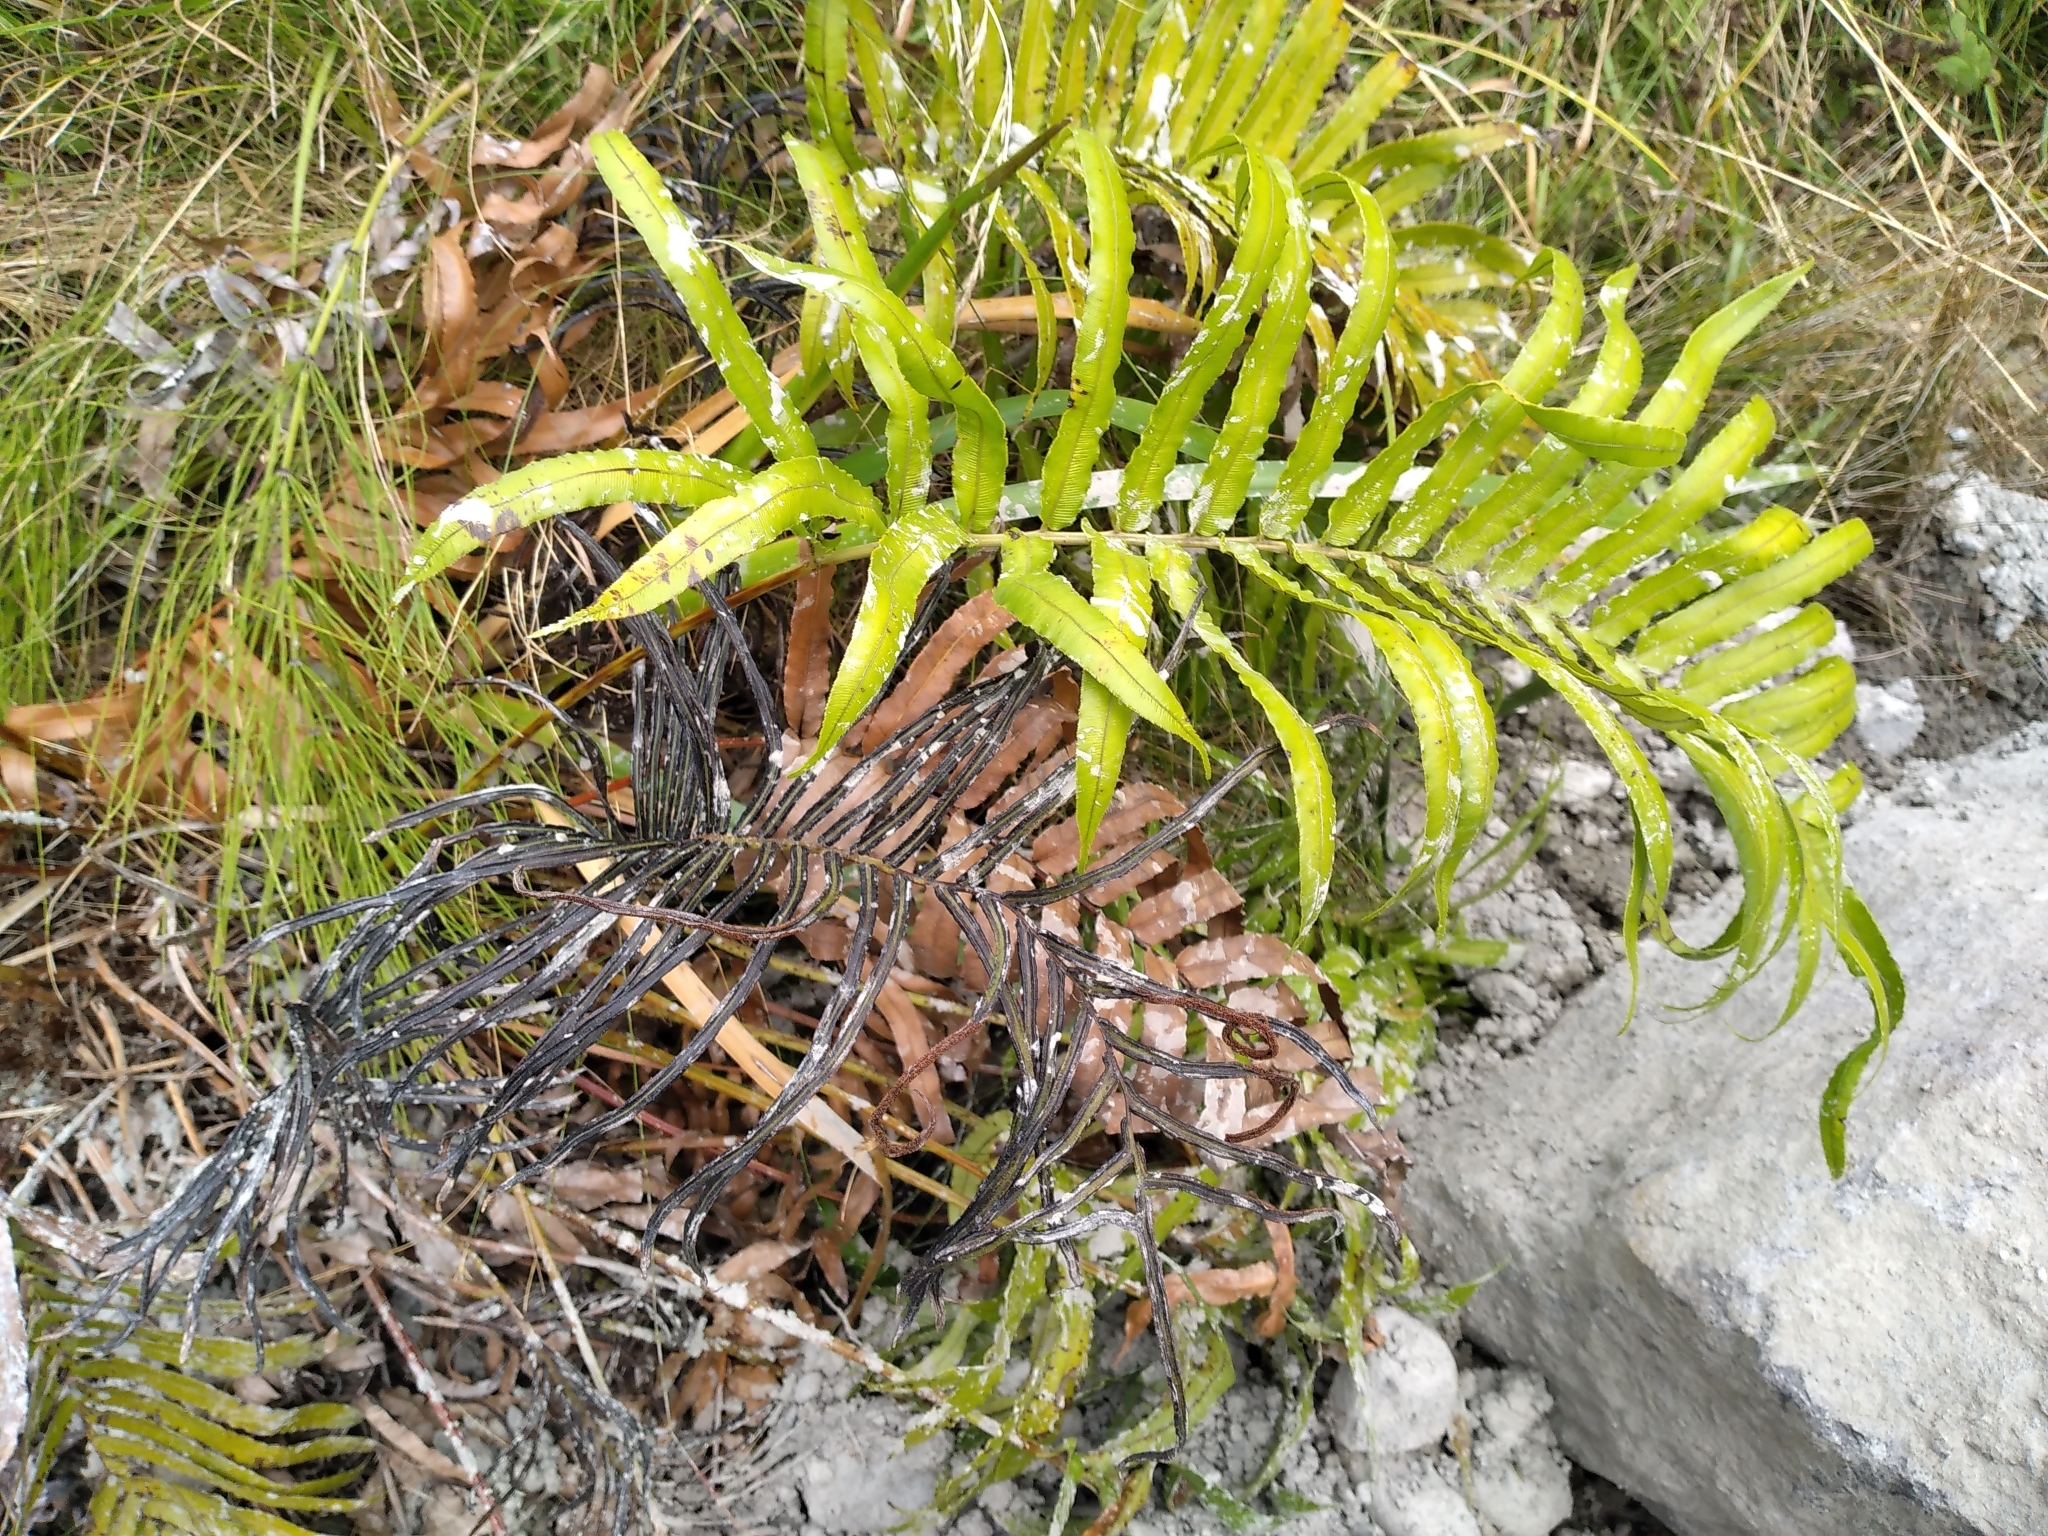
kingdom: Plantae
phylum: Tracheophyta
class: Polypodiopsida
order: Polypodiales
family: Blechnaceae
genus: Parablechnum
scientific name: Parablechnum triangularifolium
